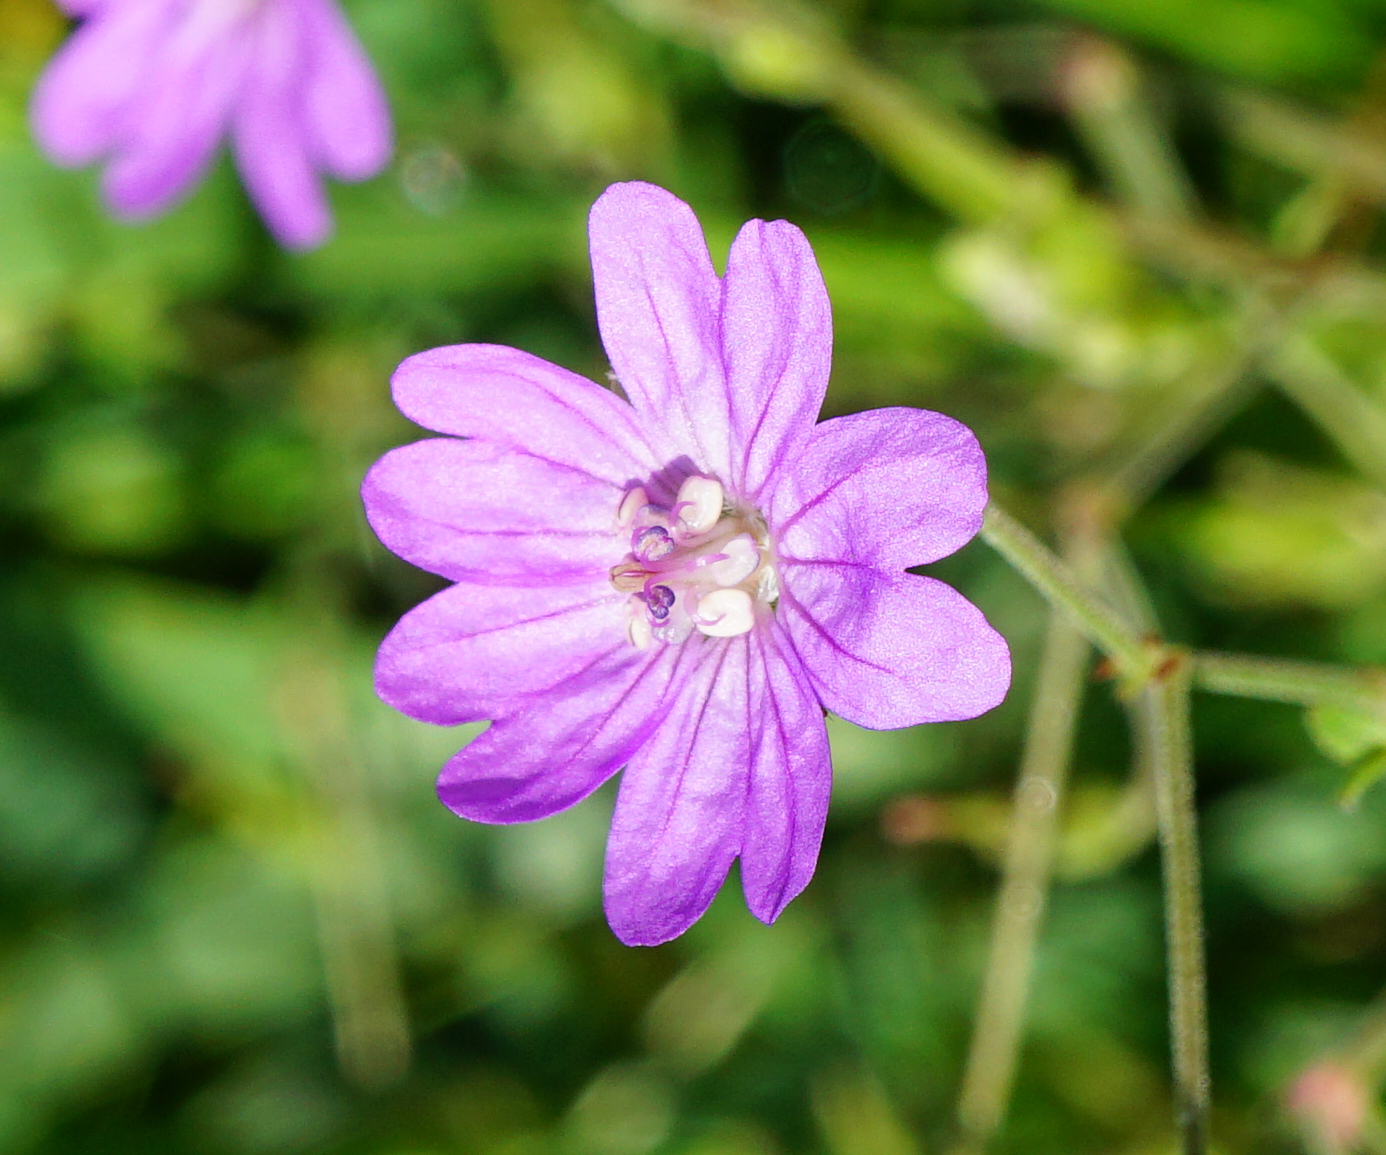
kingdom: Plantae
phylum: Tracheophyta
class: Magnoliopsida
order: Geraniales
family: Geraniaceae
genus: Geranium
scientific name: Geranium pyrenaicum
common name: Hedgerow crane's-bill
